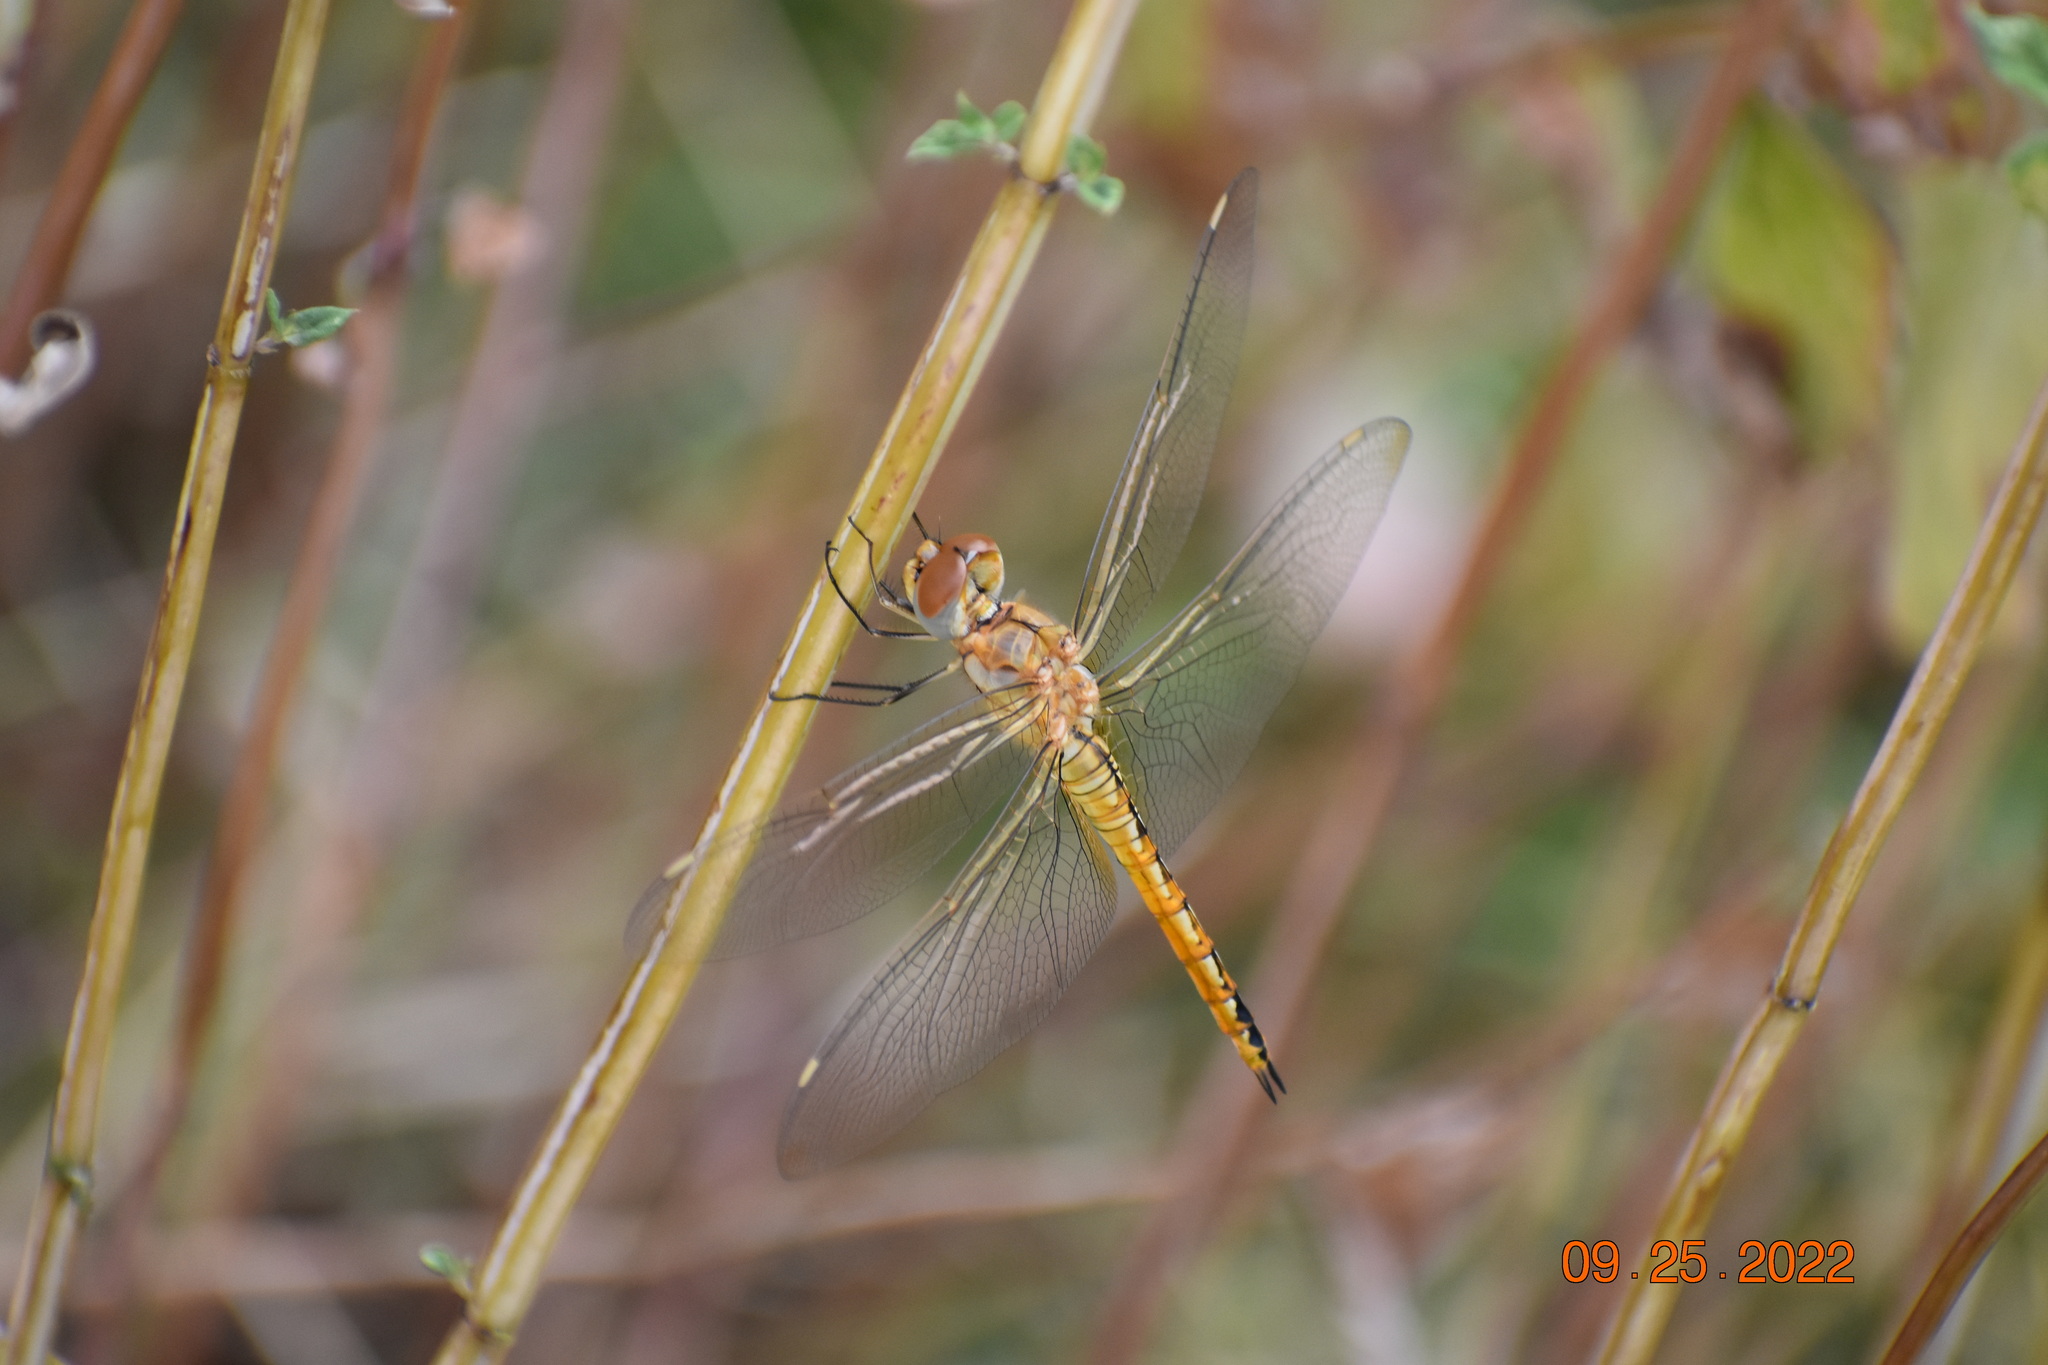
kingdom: Animalia
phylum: Arthropoda
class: Insecta
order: Odonata
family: Libellulidae
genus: Pantala
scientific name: Pantala flavescens
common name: Wandering glider
